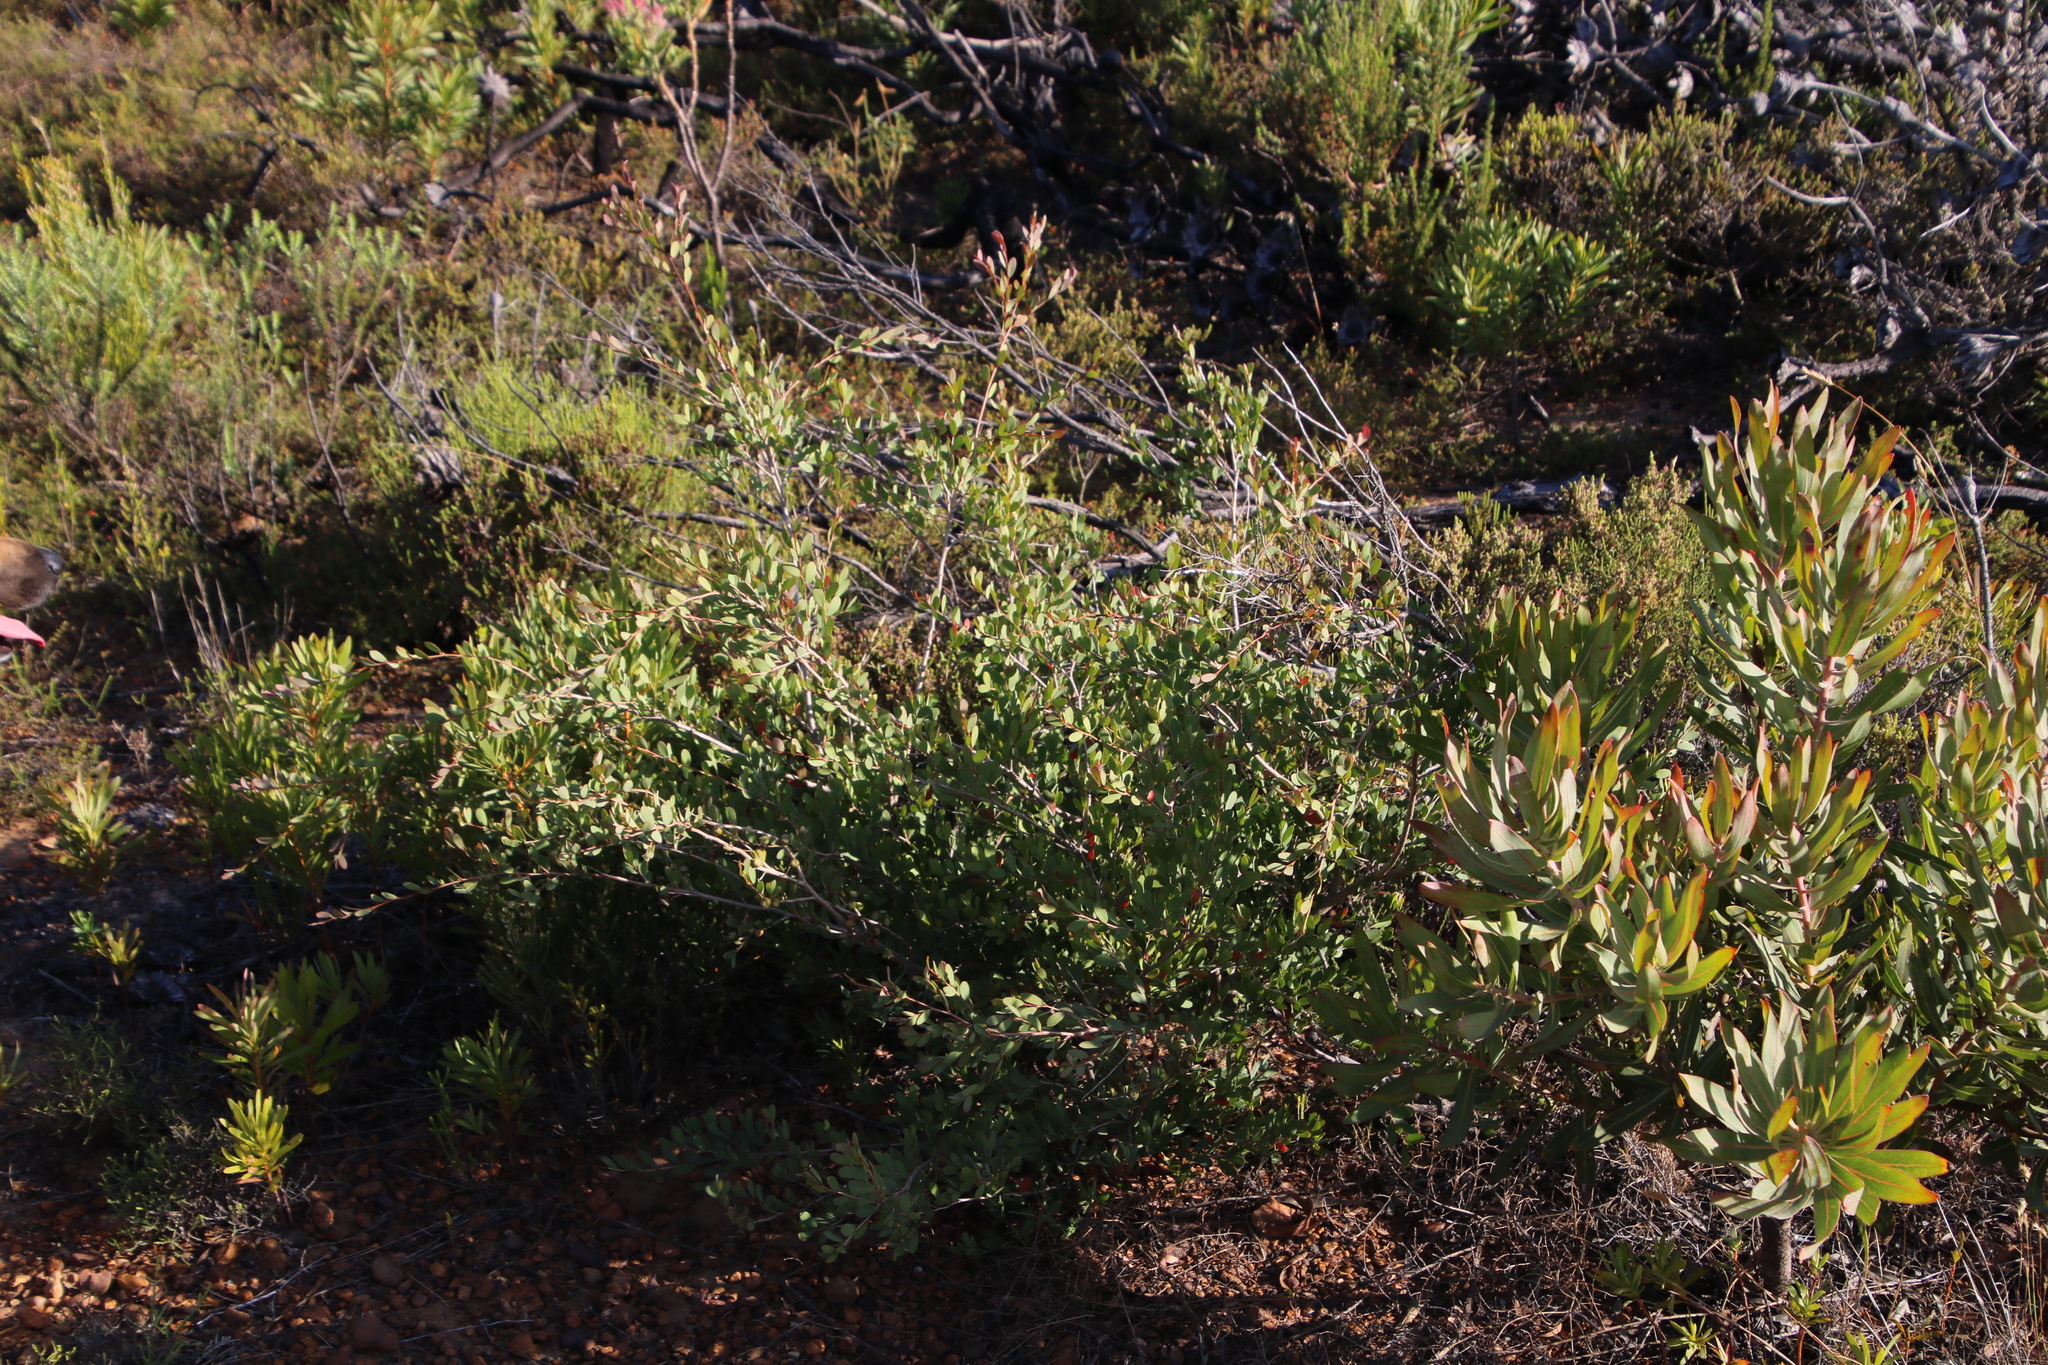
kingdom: Plantae
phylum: Tracheophyta
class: Magnoliopsida
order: Myrtales
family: Myrtaceae
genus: Leptospermum
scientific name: Leptospermum laevigatum
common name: Australian teatree
